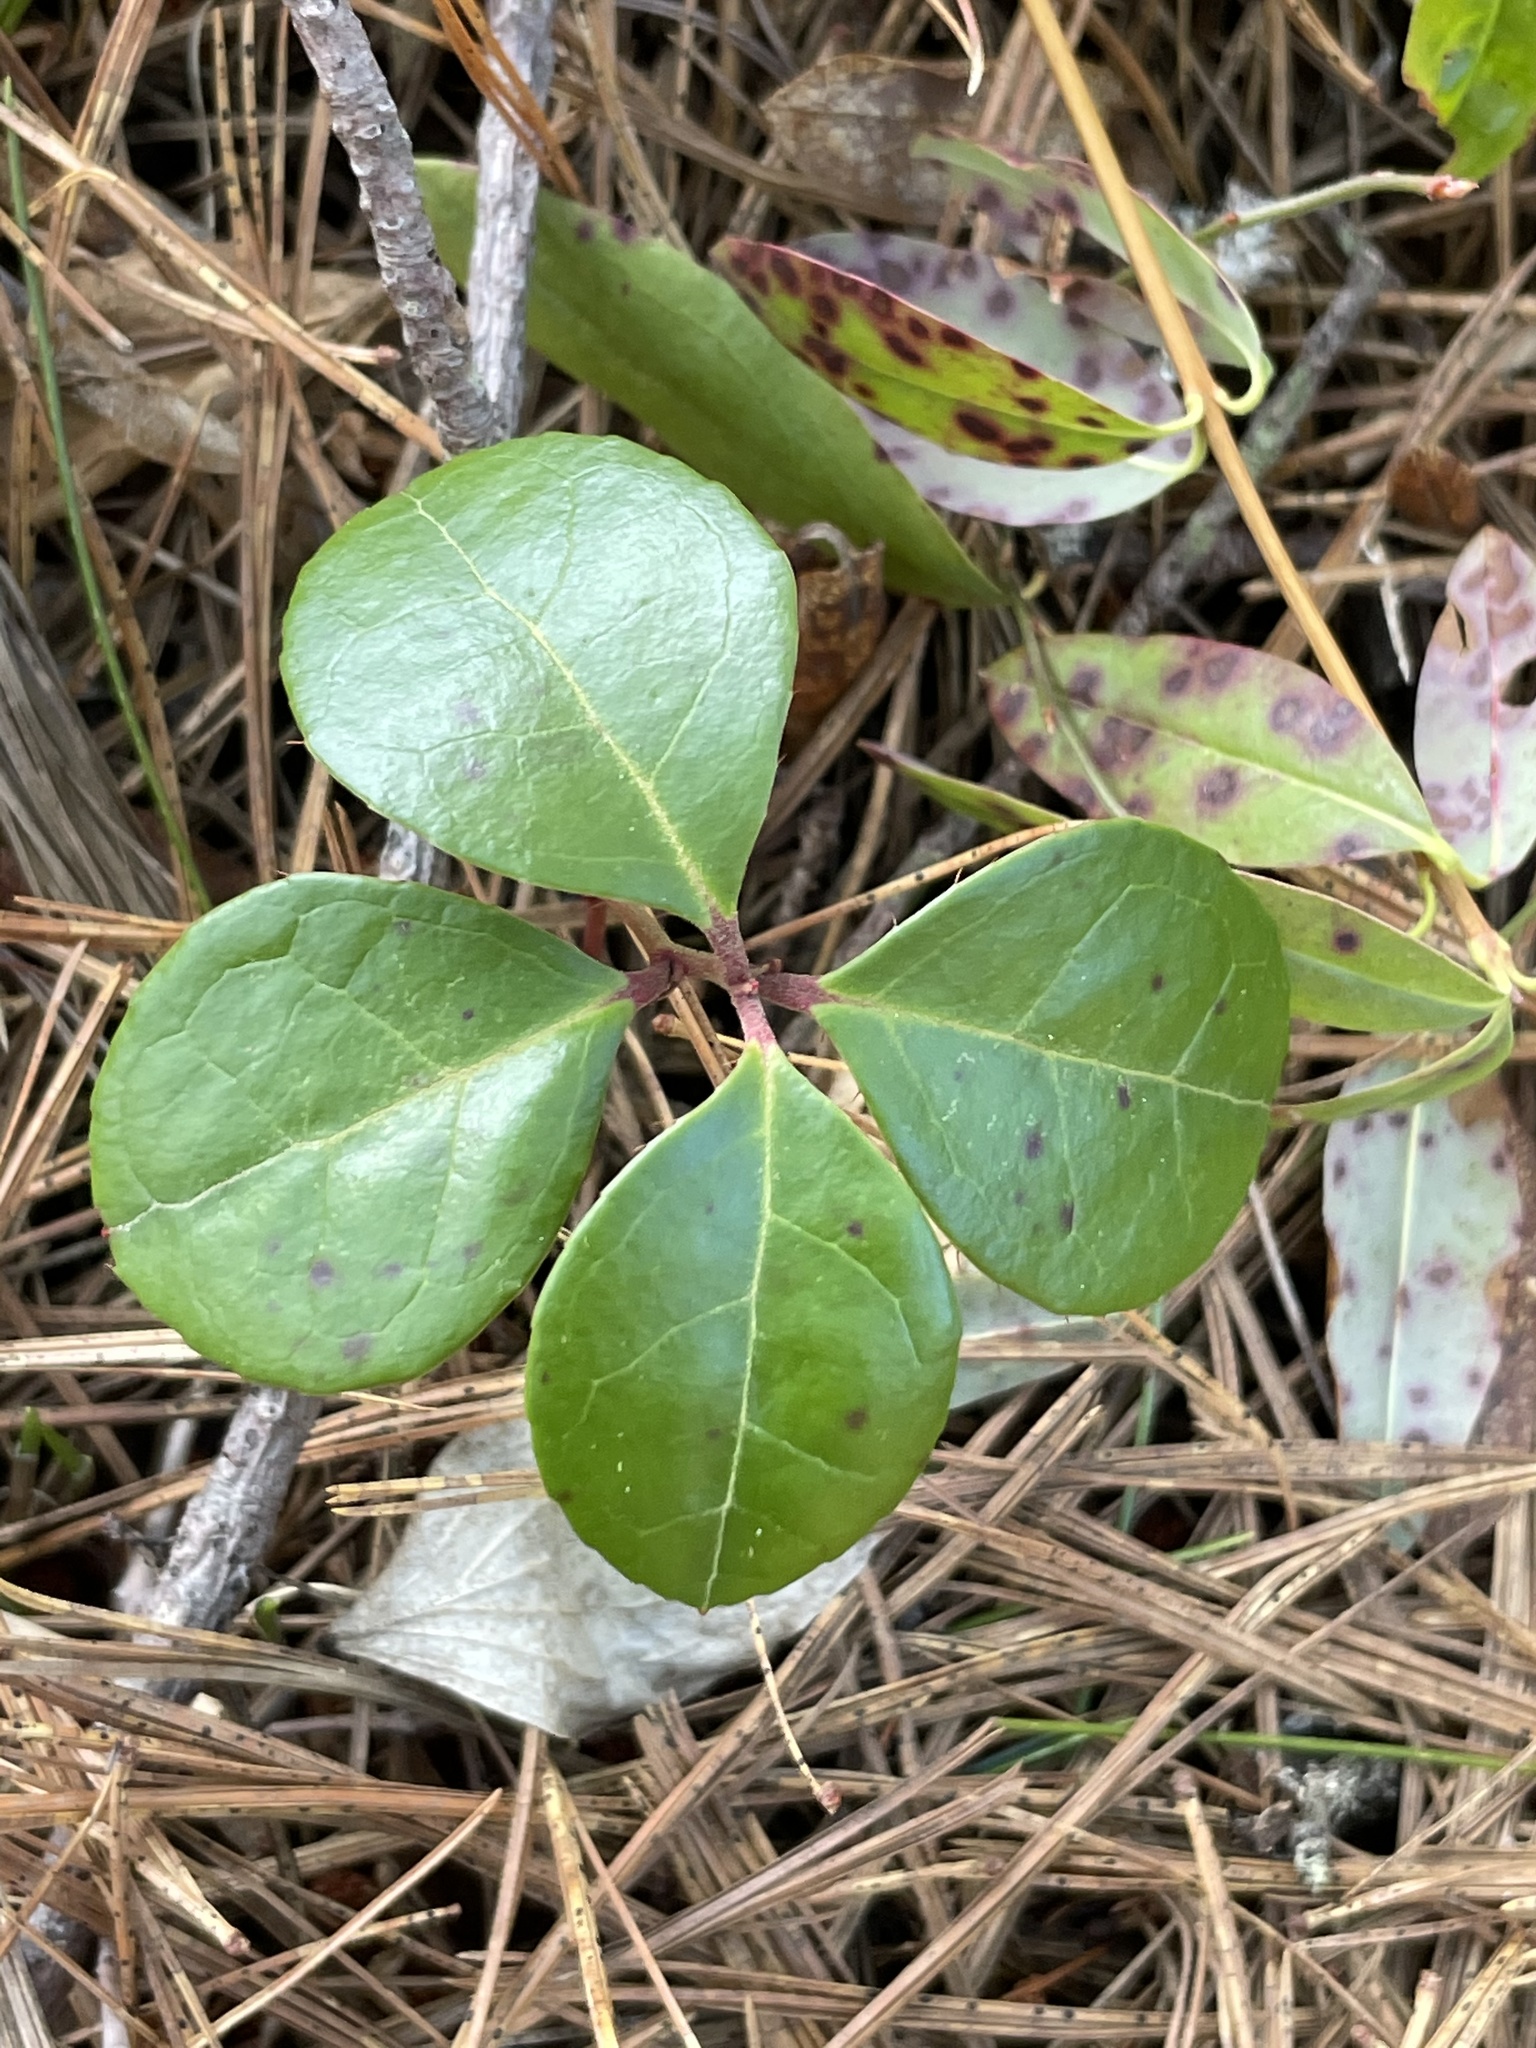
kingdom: Plantae
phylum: Tracheophyta
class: Magnoliopsida
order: Ericales
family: Ericaceae
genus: Gaultheria
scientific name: Gaultheria procumbens
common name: Checkerberry
